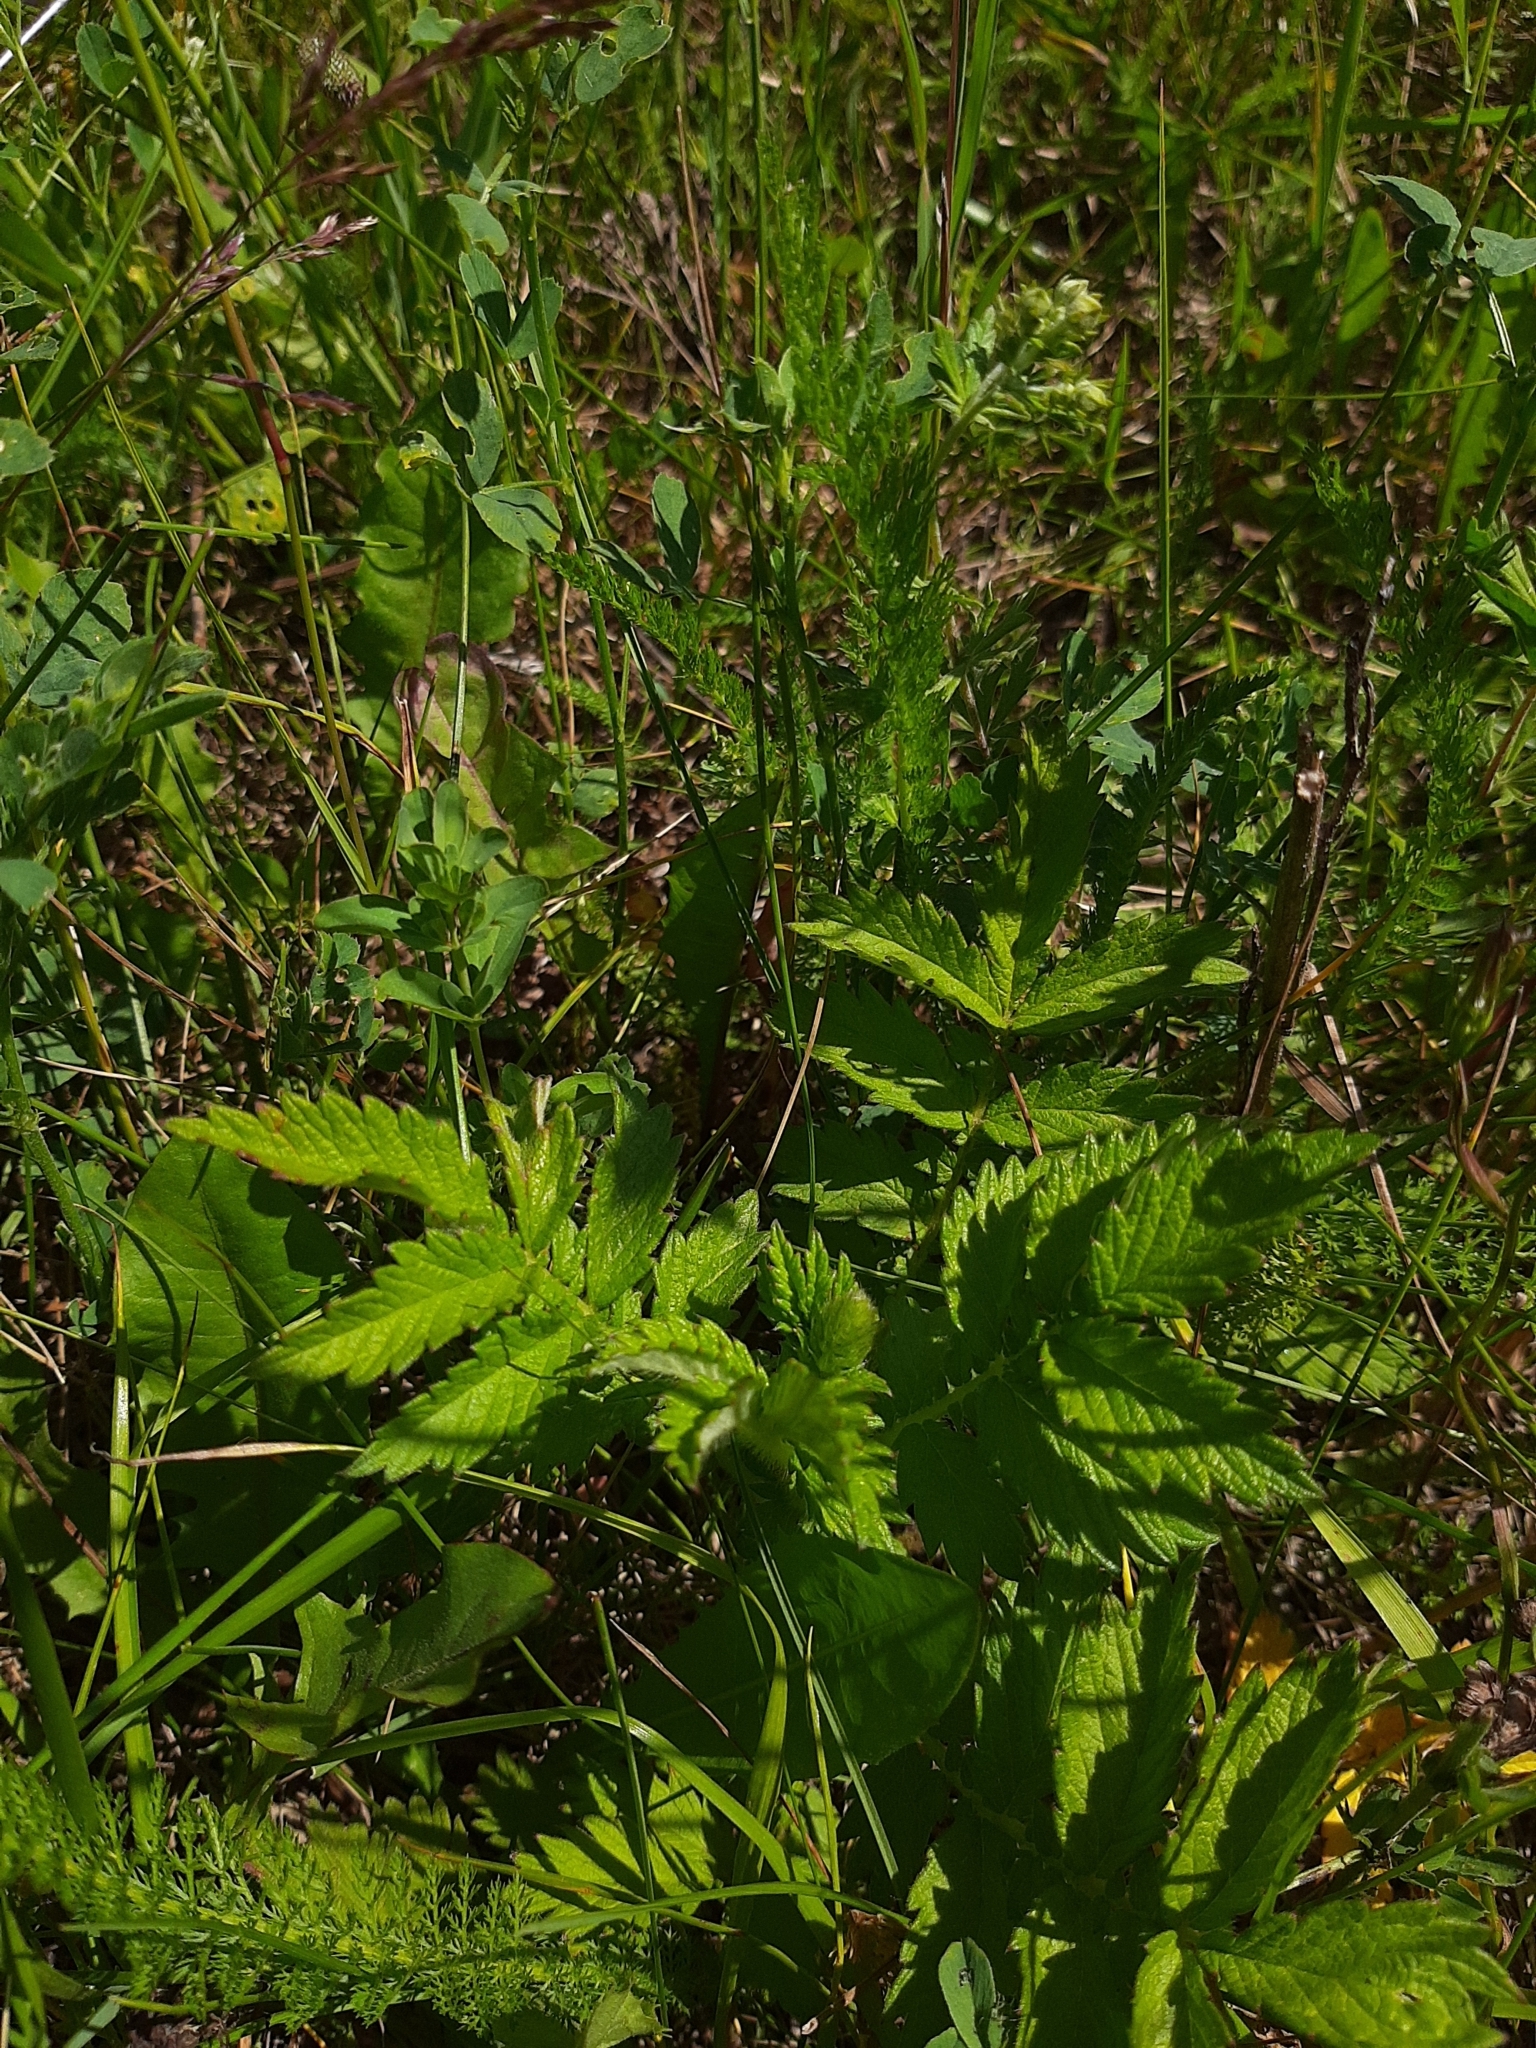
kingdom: Plantae
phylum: Tracheophyta
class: Magnoliopsida
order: Rosales
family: Rosaceae
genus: Agrimonia
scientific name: Agrimonia eupatoria
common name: Agrimony
